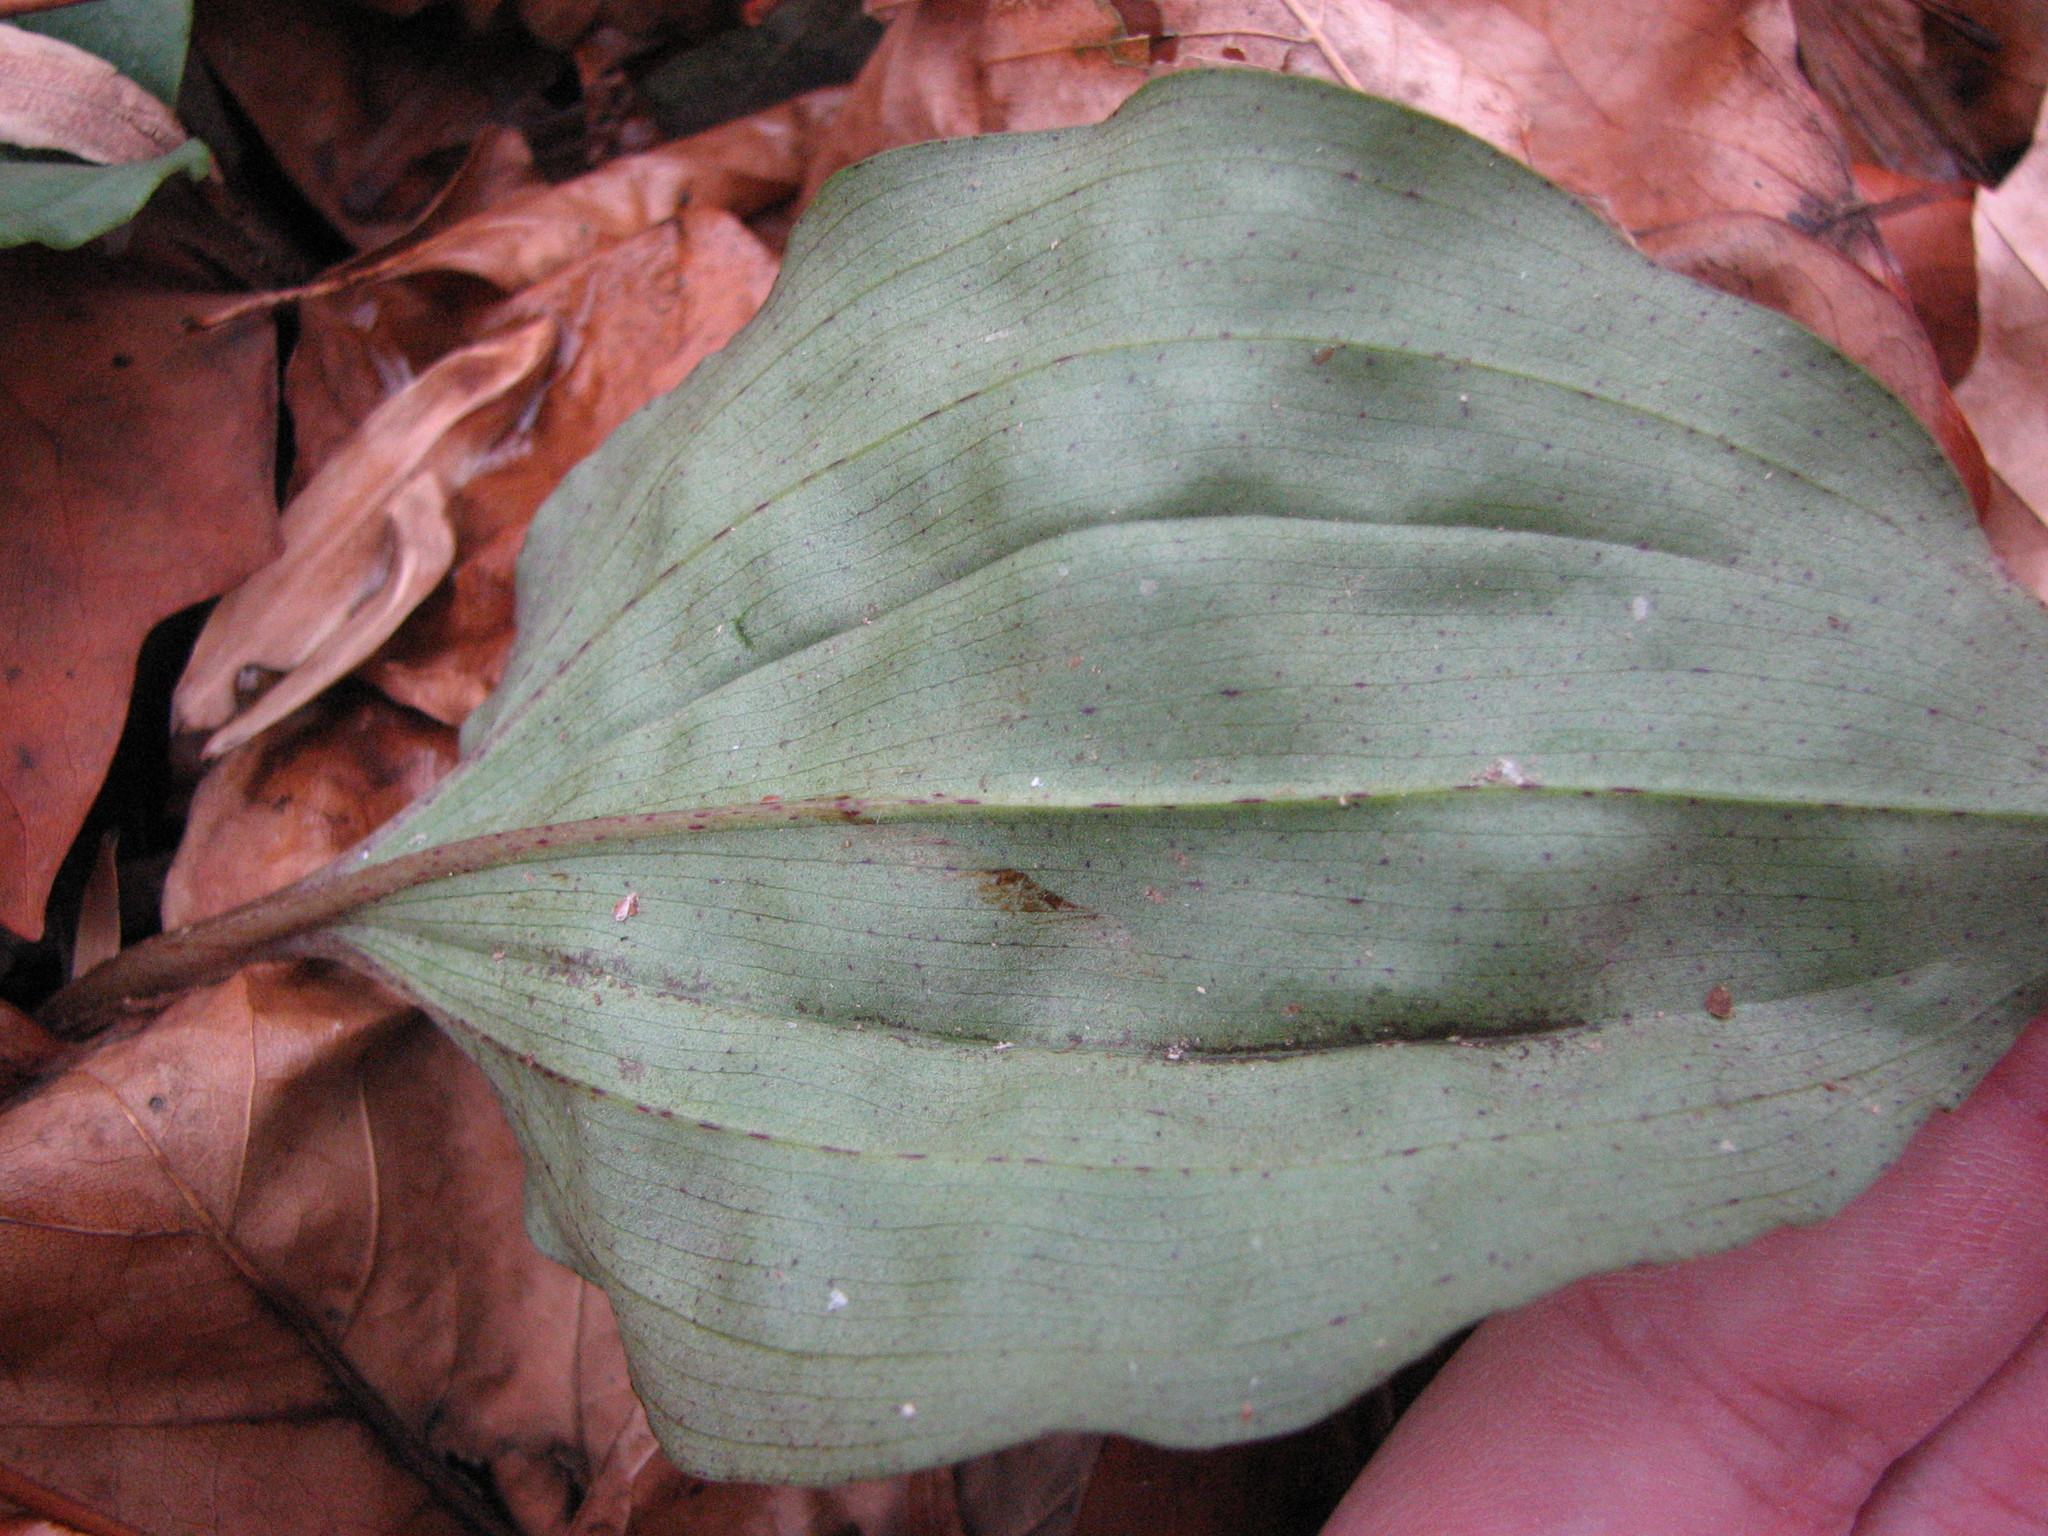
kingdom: Plantae
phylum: Tracheophyta
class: Liliopsida
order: Asparagales
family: Orchidaceae
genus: Tipularia
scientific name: Tipularia discolor
